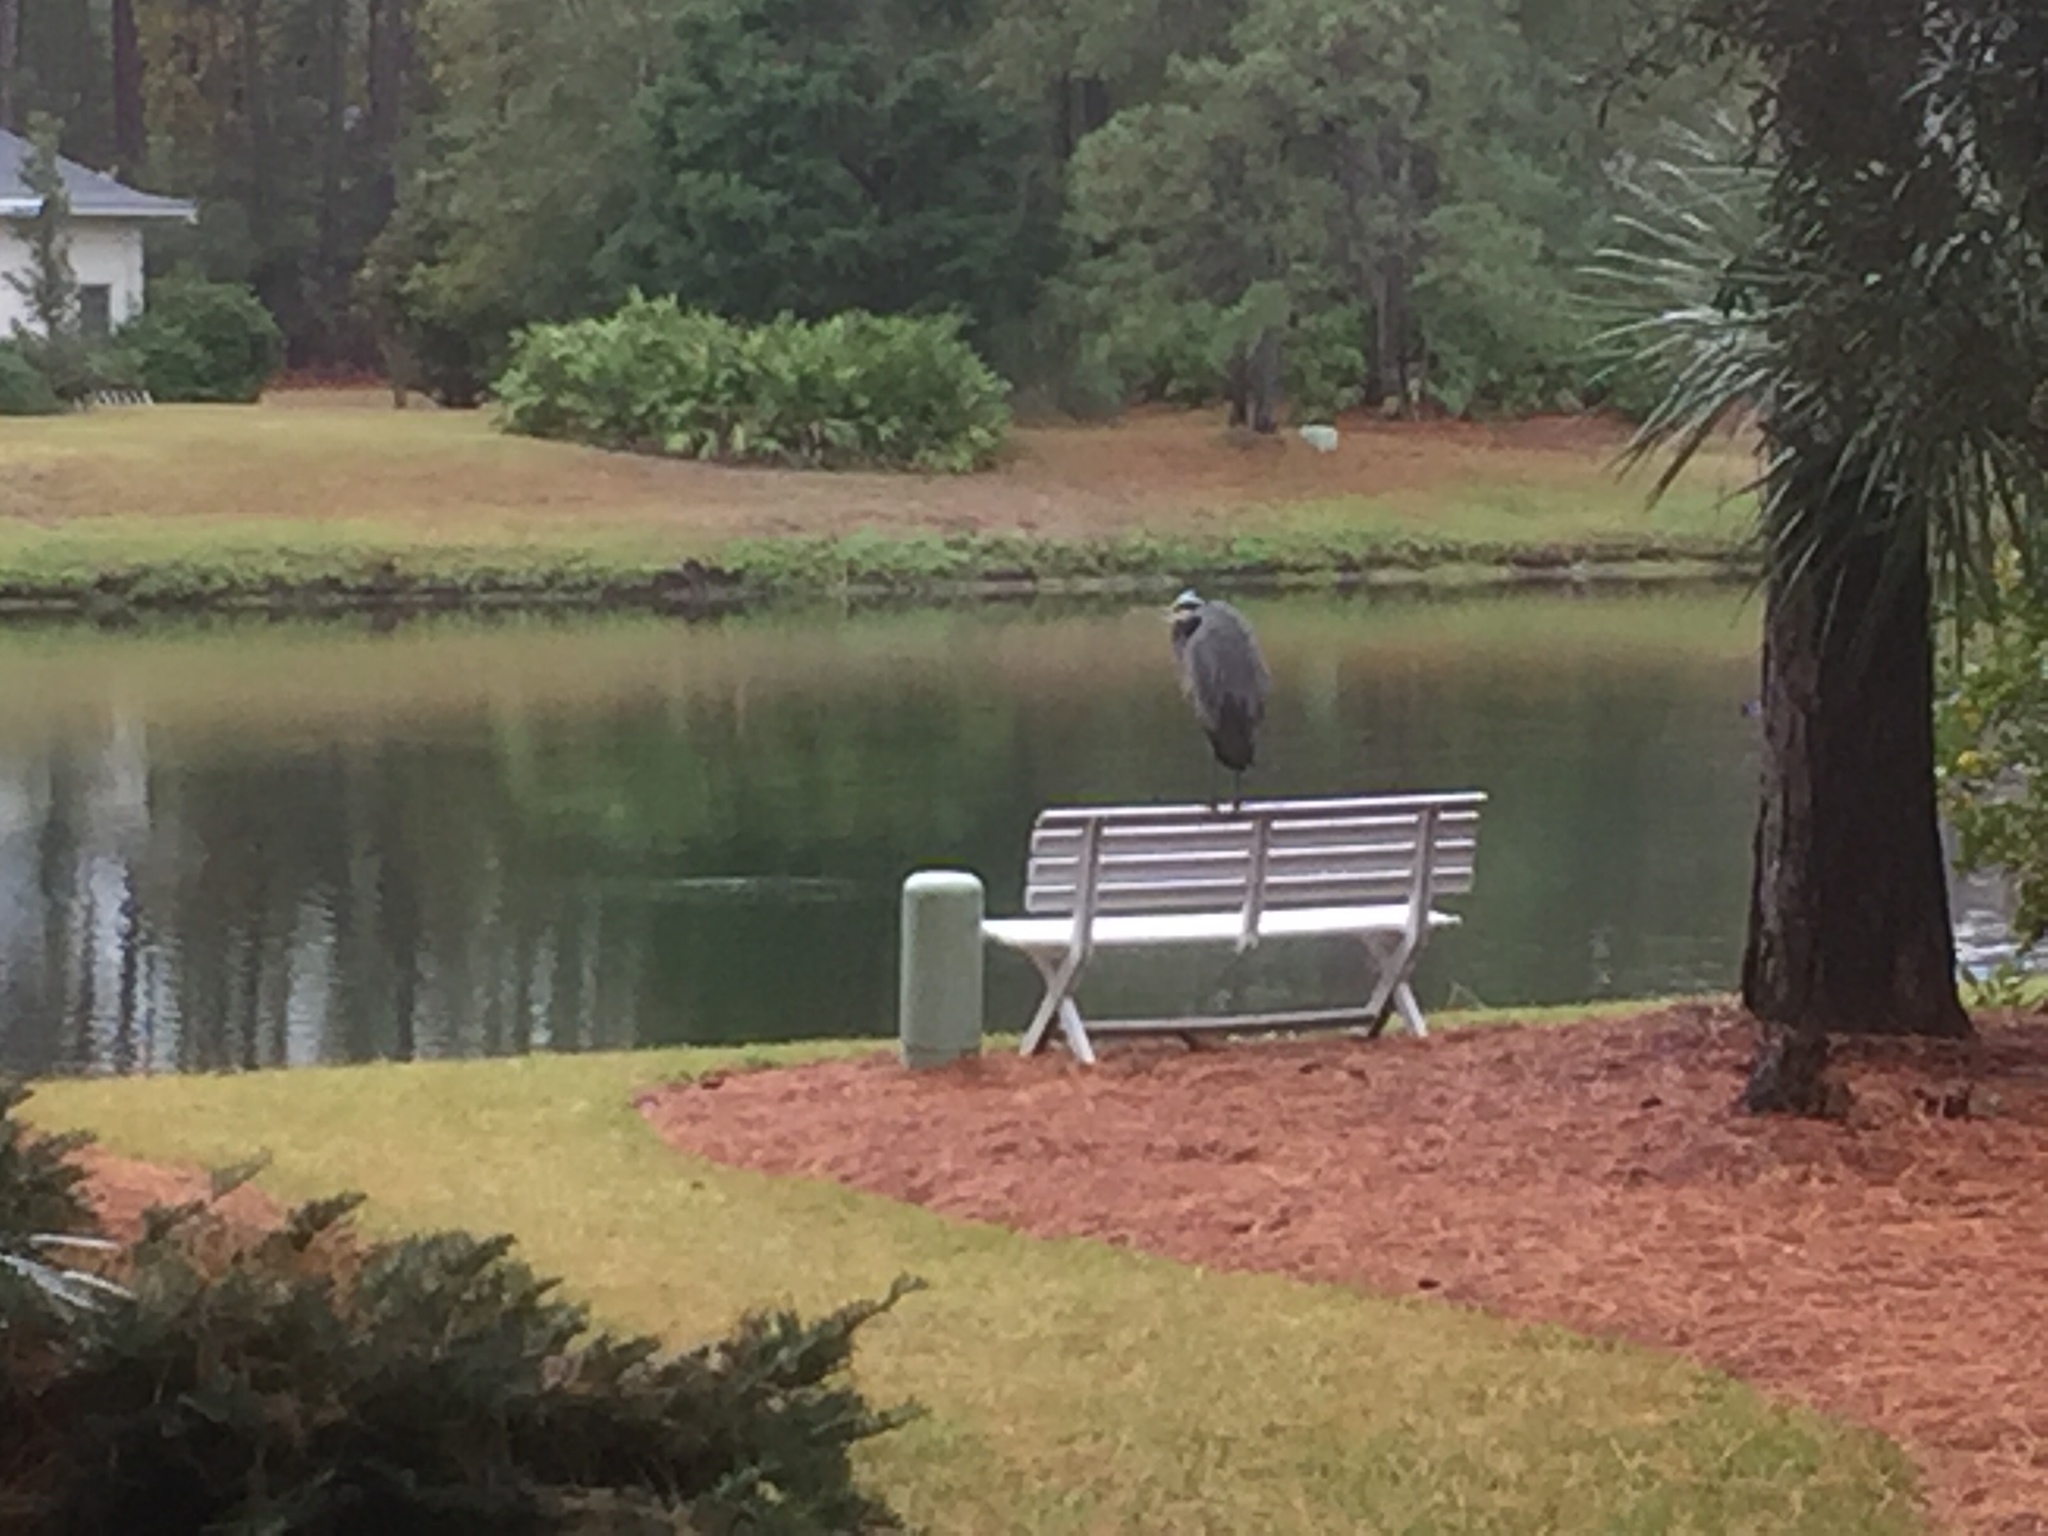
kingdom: Animalia
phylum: Chordata
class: Aves
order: Pelecaniformes
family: Ardeidae
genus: Ardea
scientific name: Ardea herodias
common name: Great blue heron
